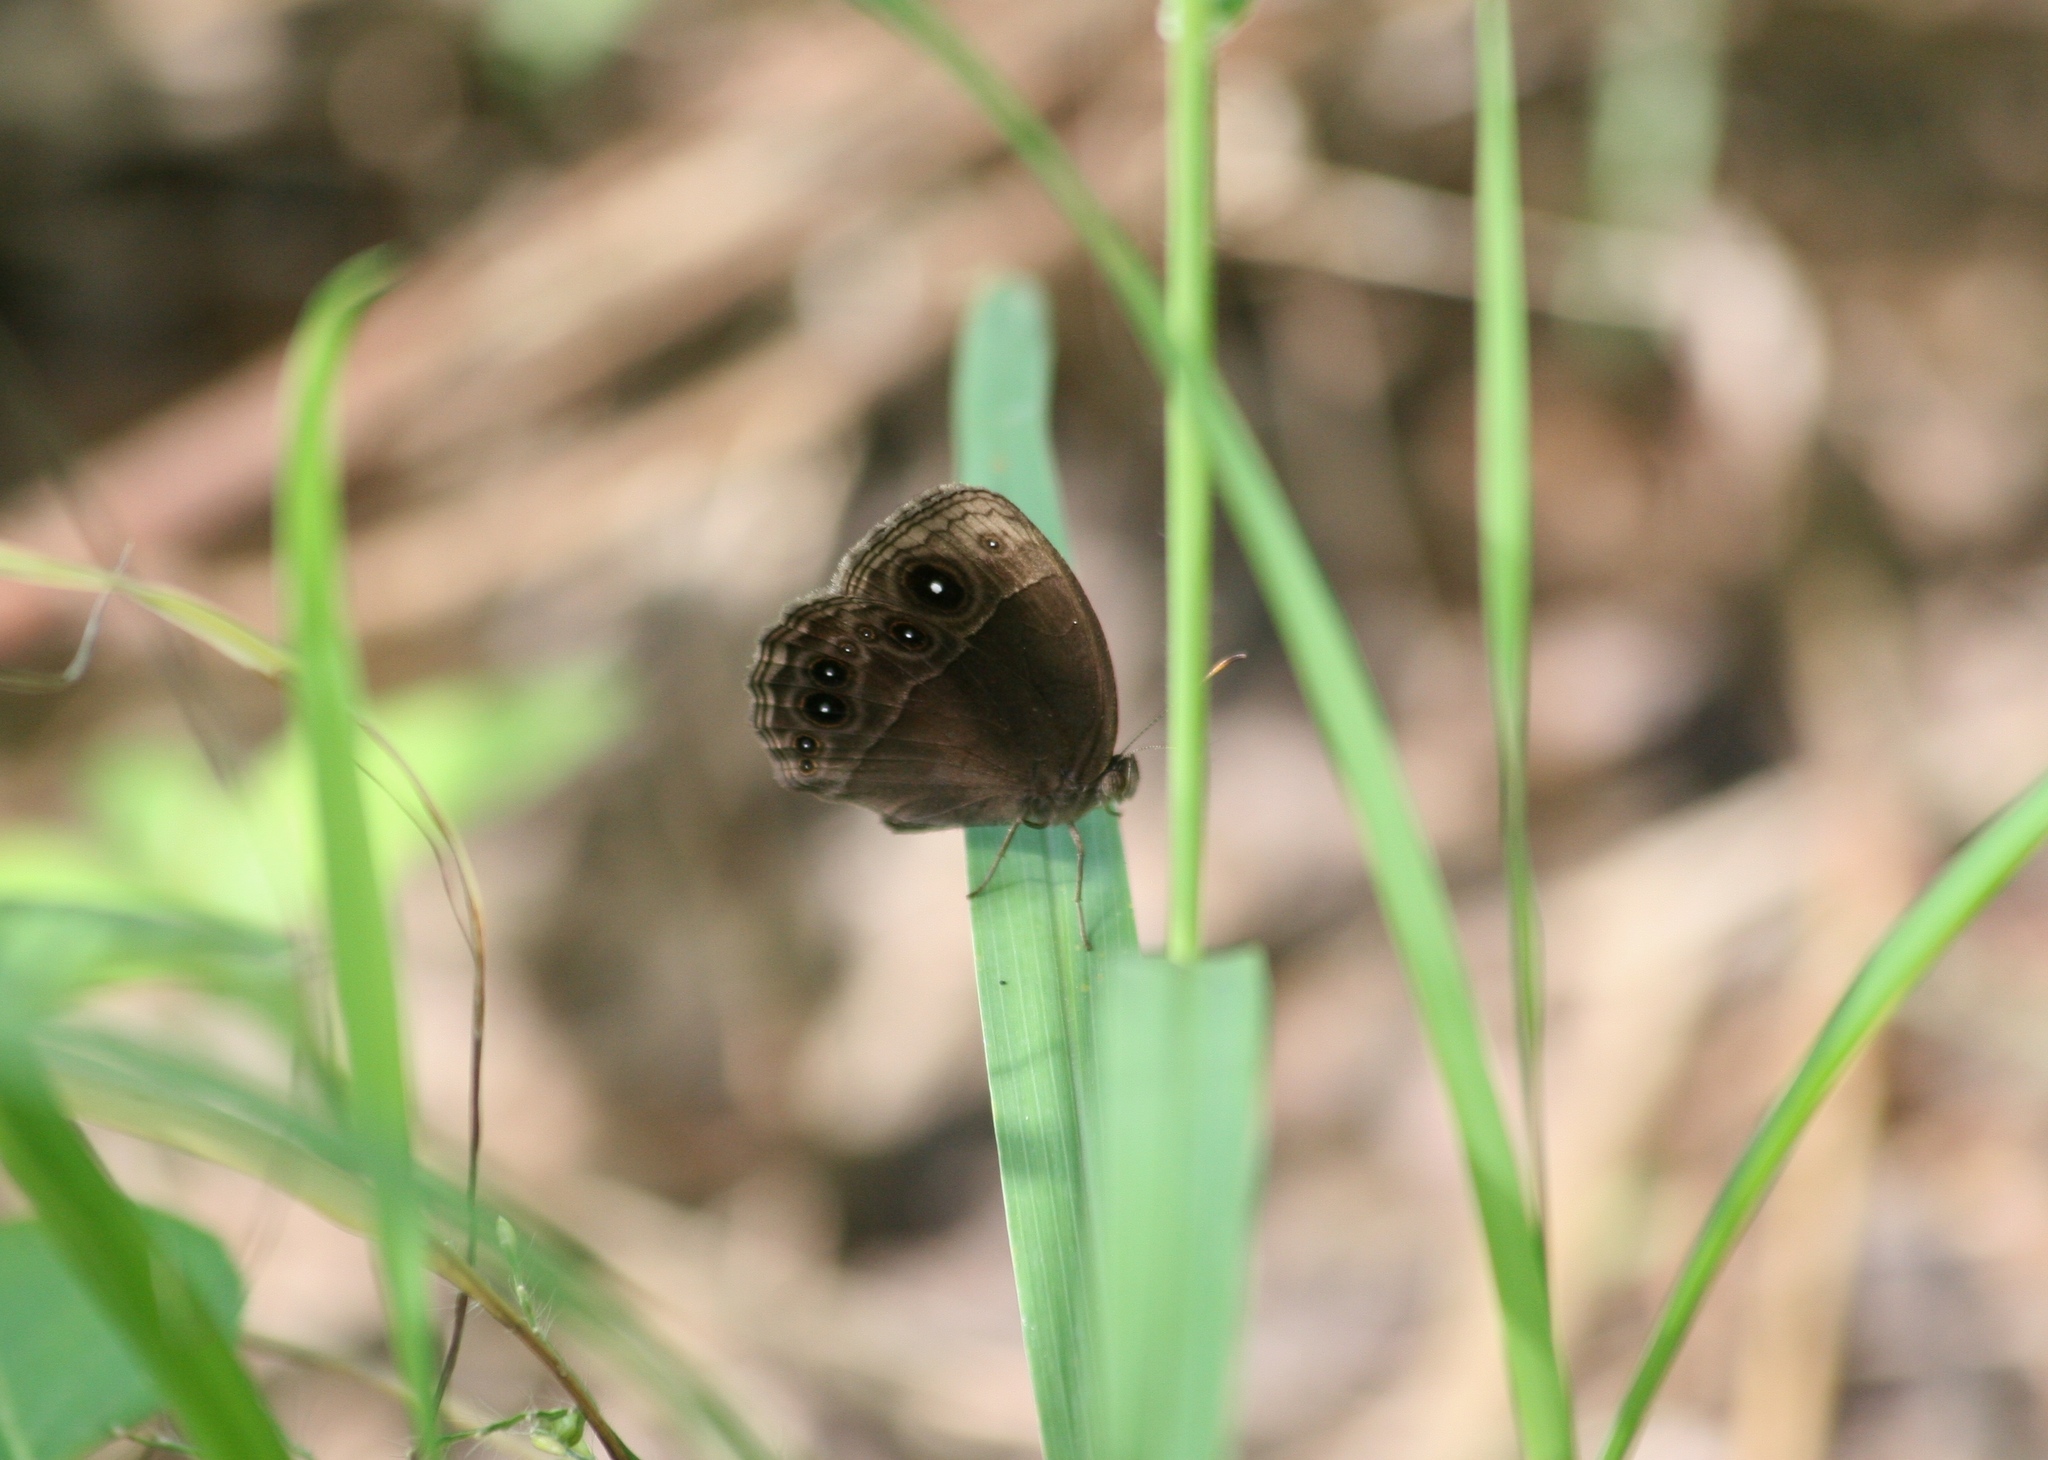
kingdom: Animalia
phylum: Arthropoda
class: Insecta
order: Lepidoptera
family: Nymphalidae
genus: Mycalesis
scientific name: Mycalesis rhacotis
